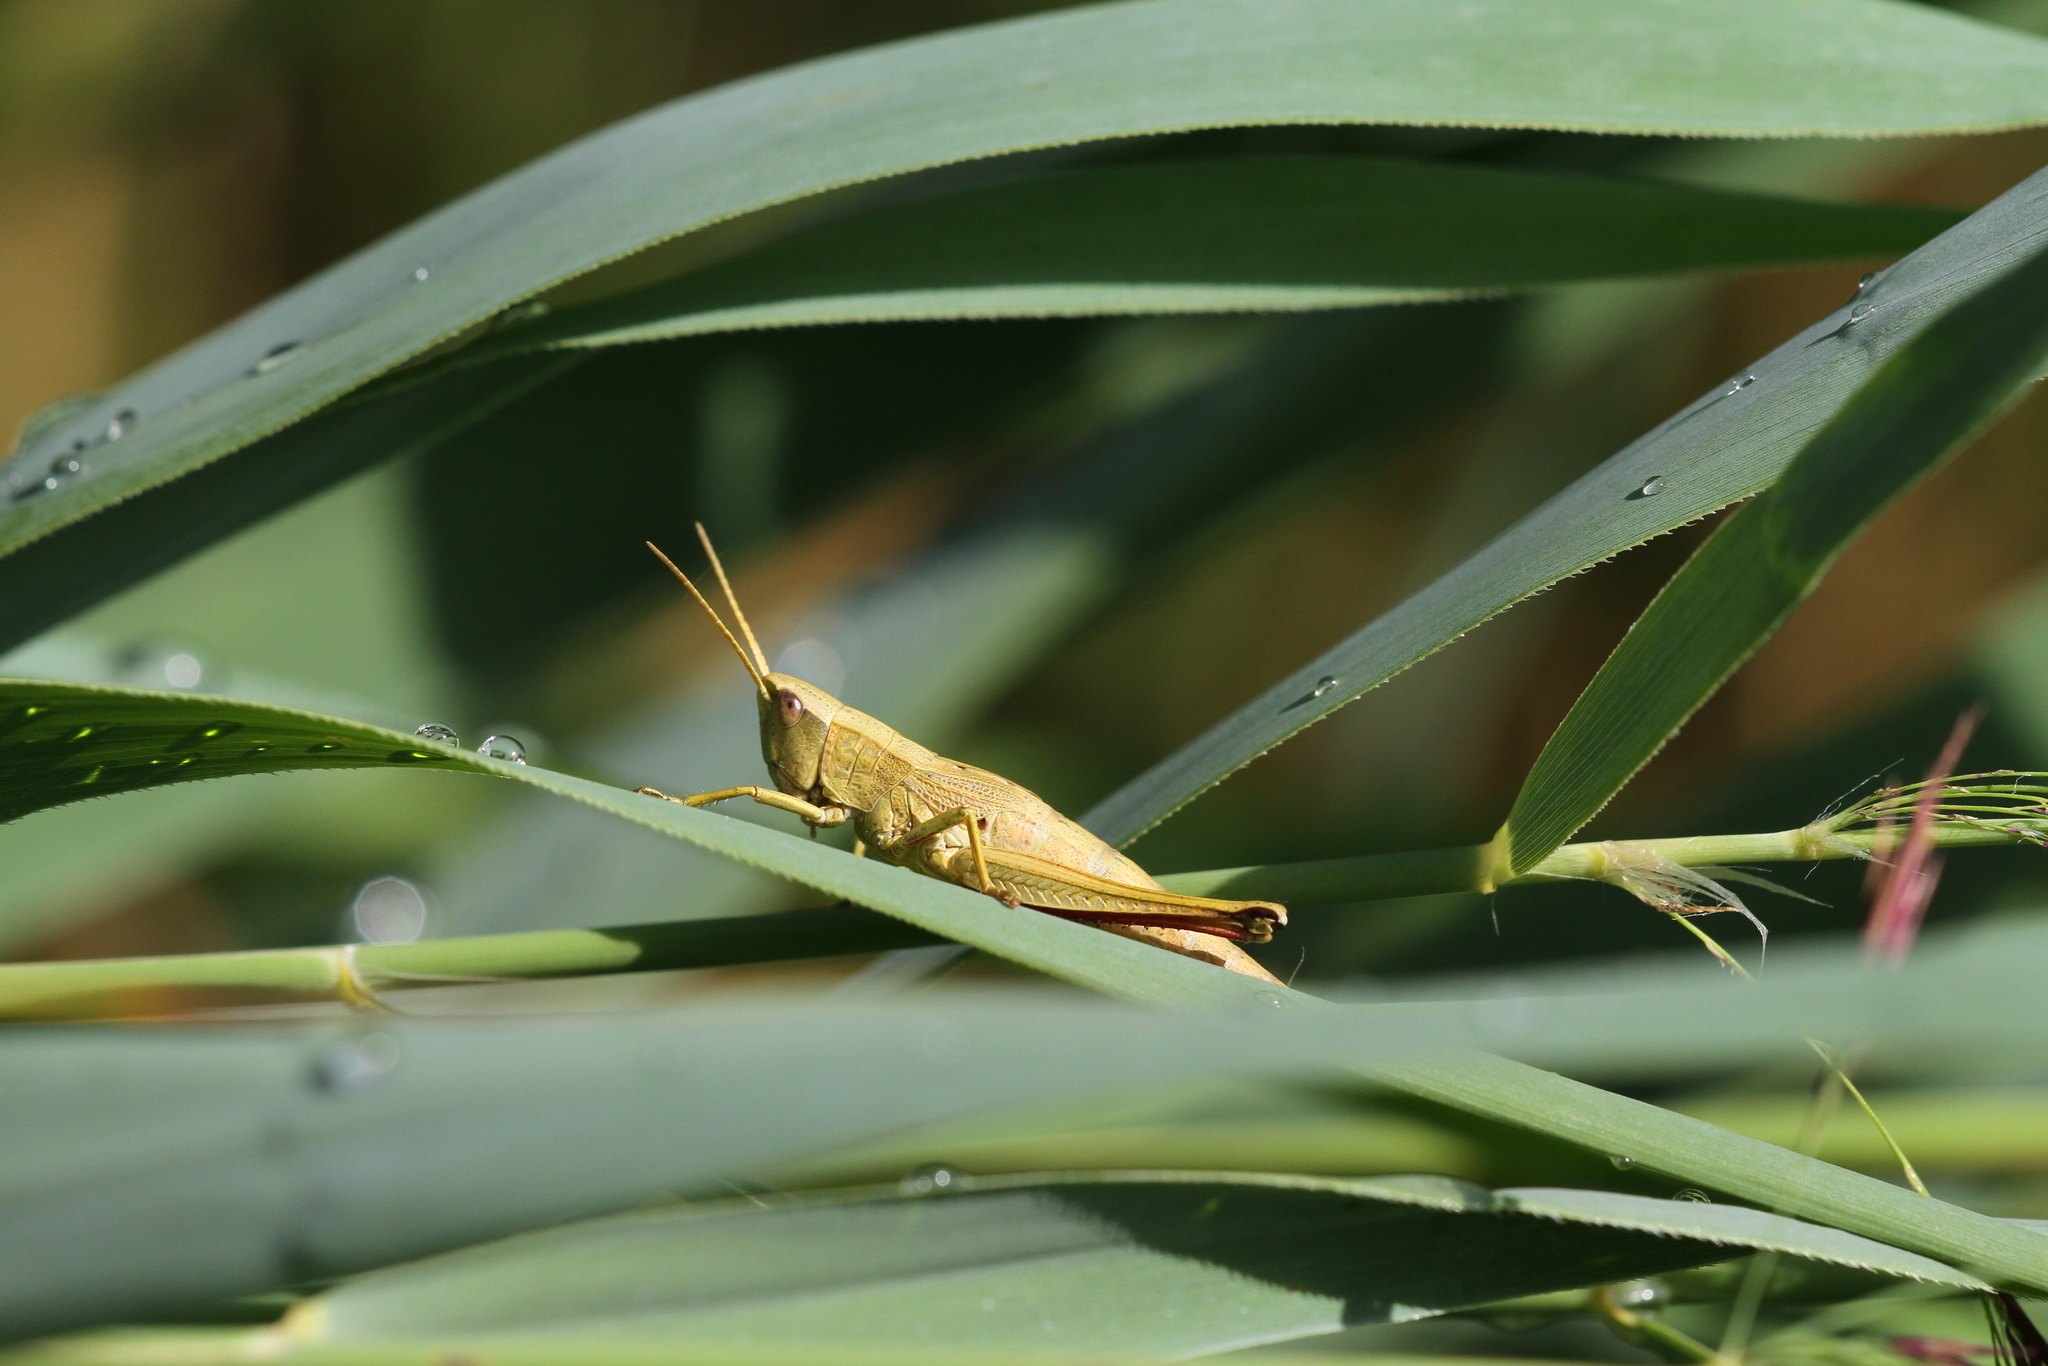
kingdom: Animalia
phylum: Arthropoda
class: Insecta
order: Orthoptera
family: Acrididae
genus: Chrysochraon
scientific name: Chrysochraon dispar
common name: Large gold grasshopper
